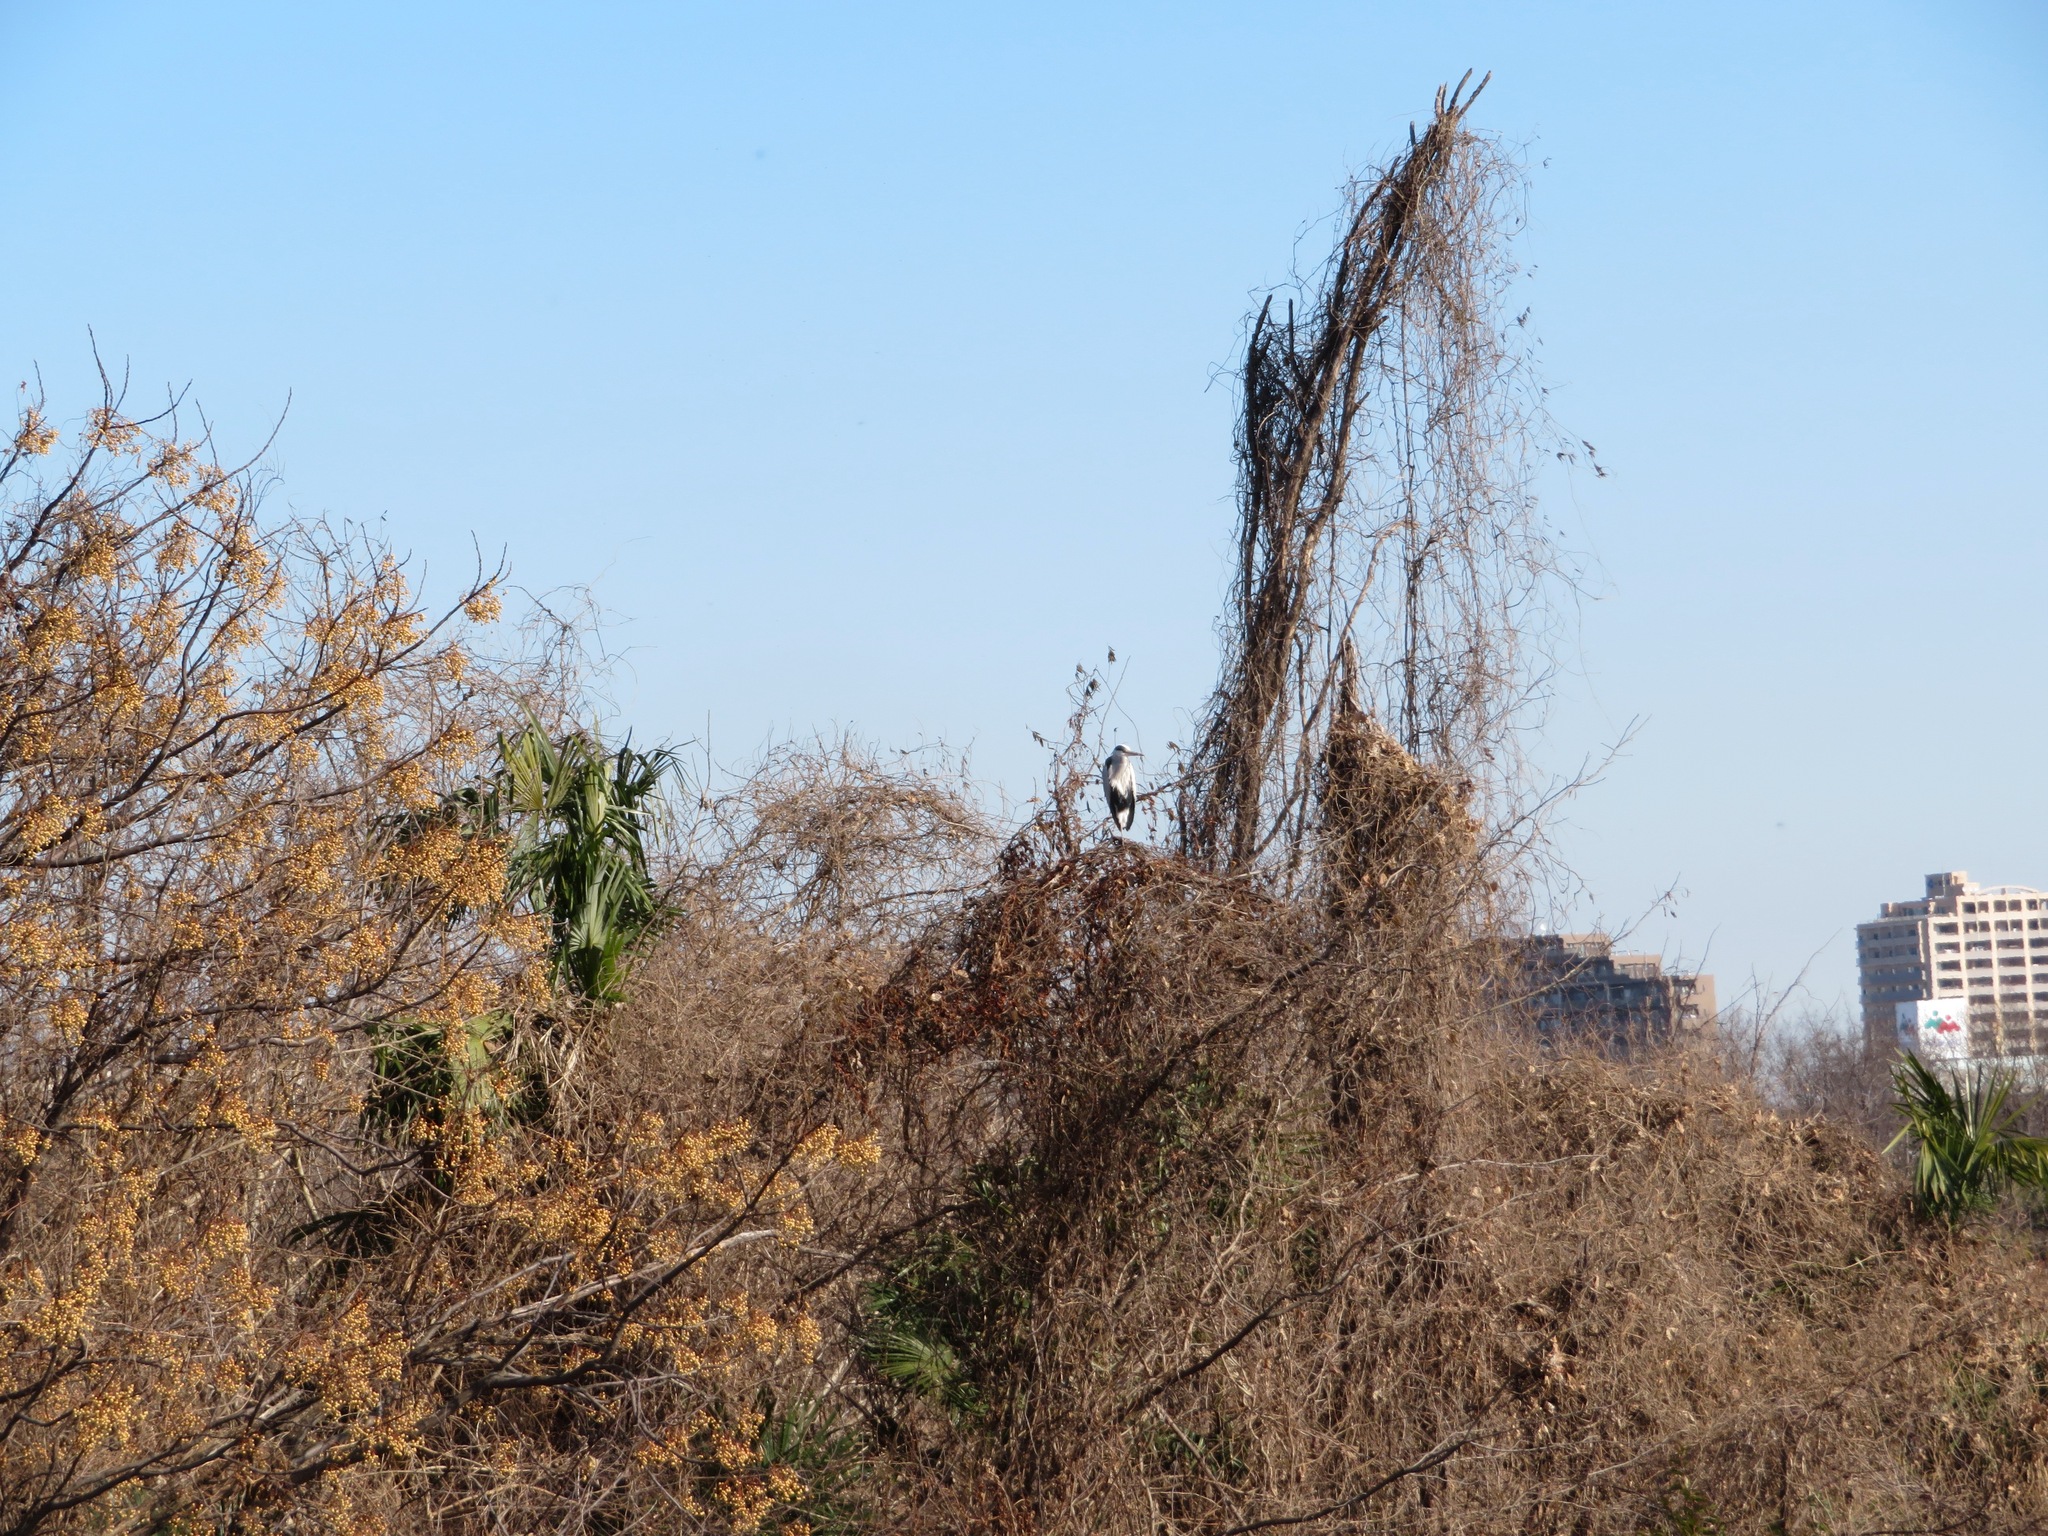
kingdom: Animalia
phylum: Chordata
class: Aves
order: Pelecaniformes
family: Ardeidae
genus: Ardea
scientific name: Ardea cinerea
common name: Grey heron
